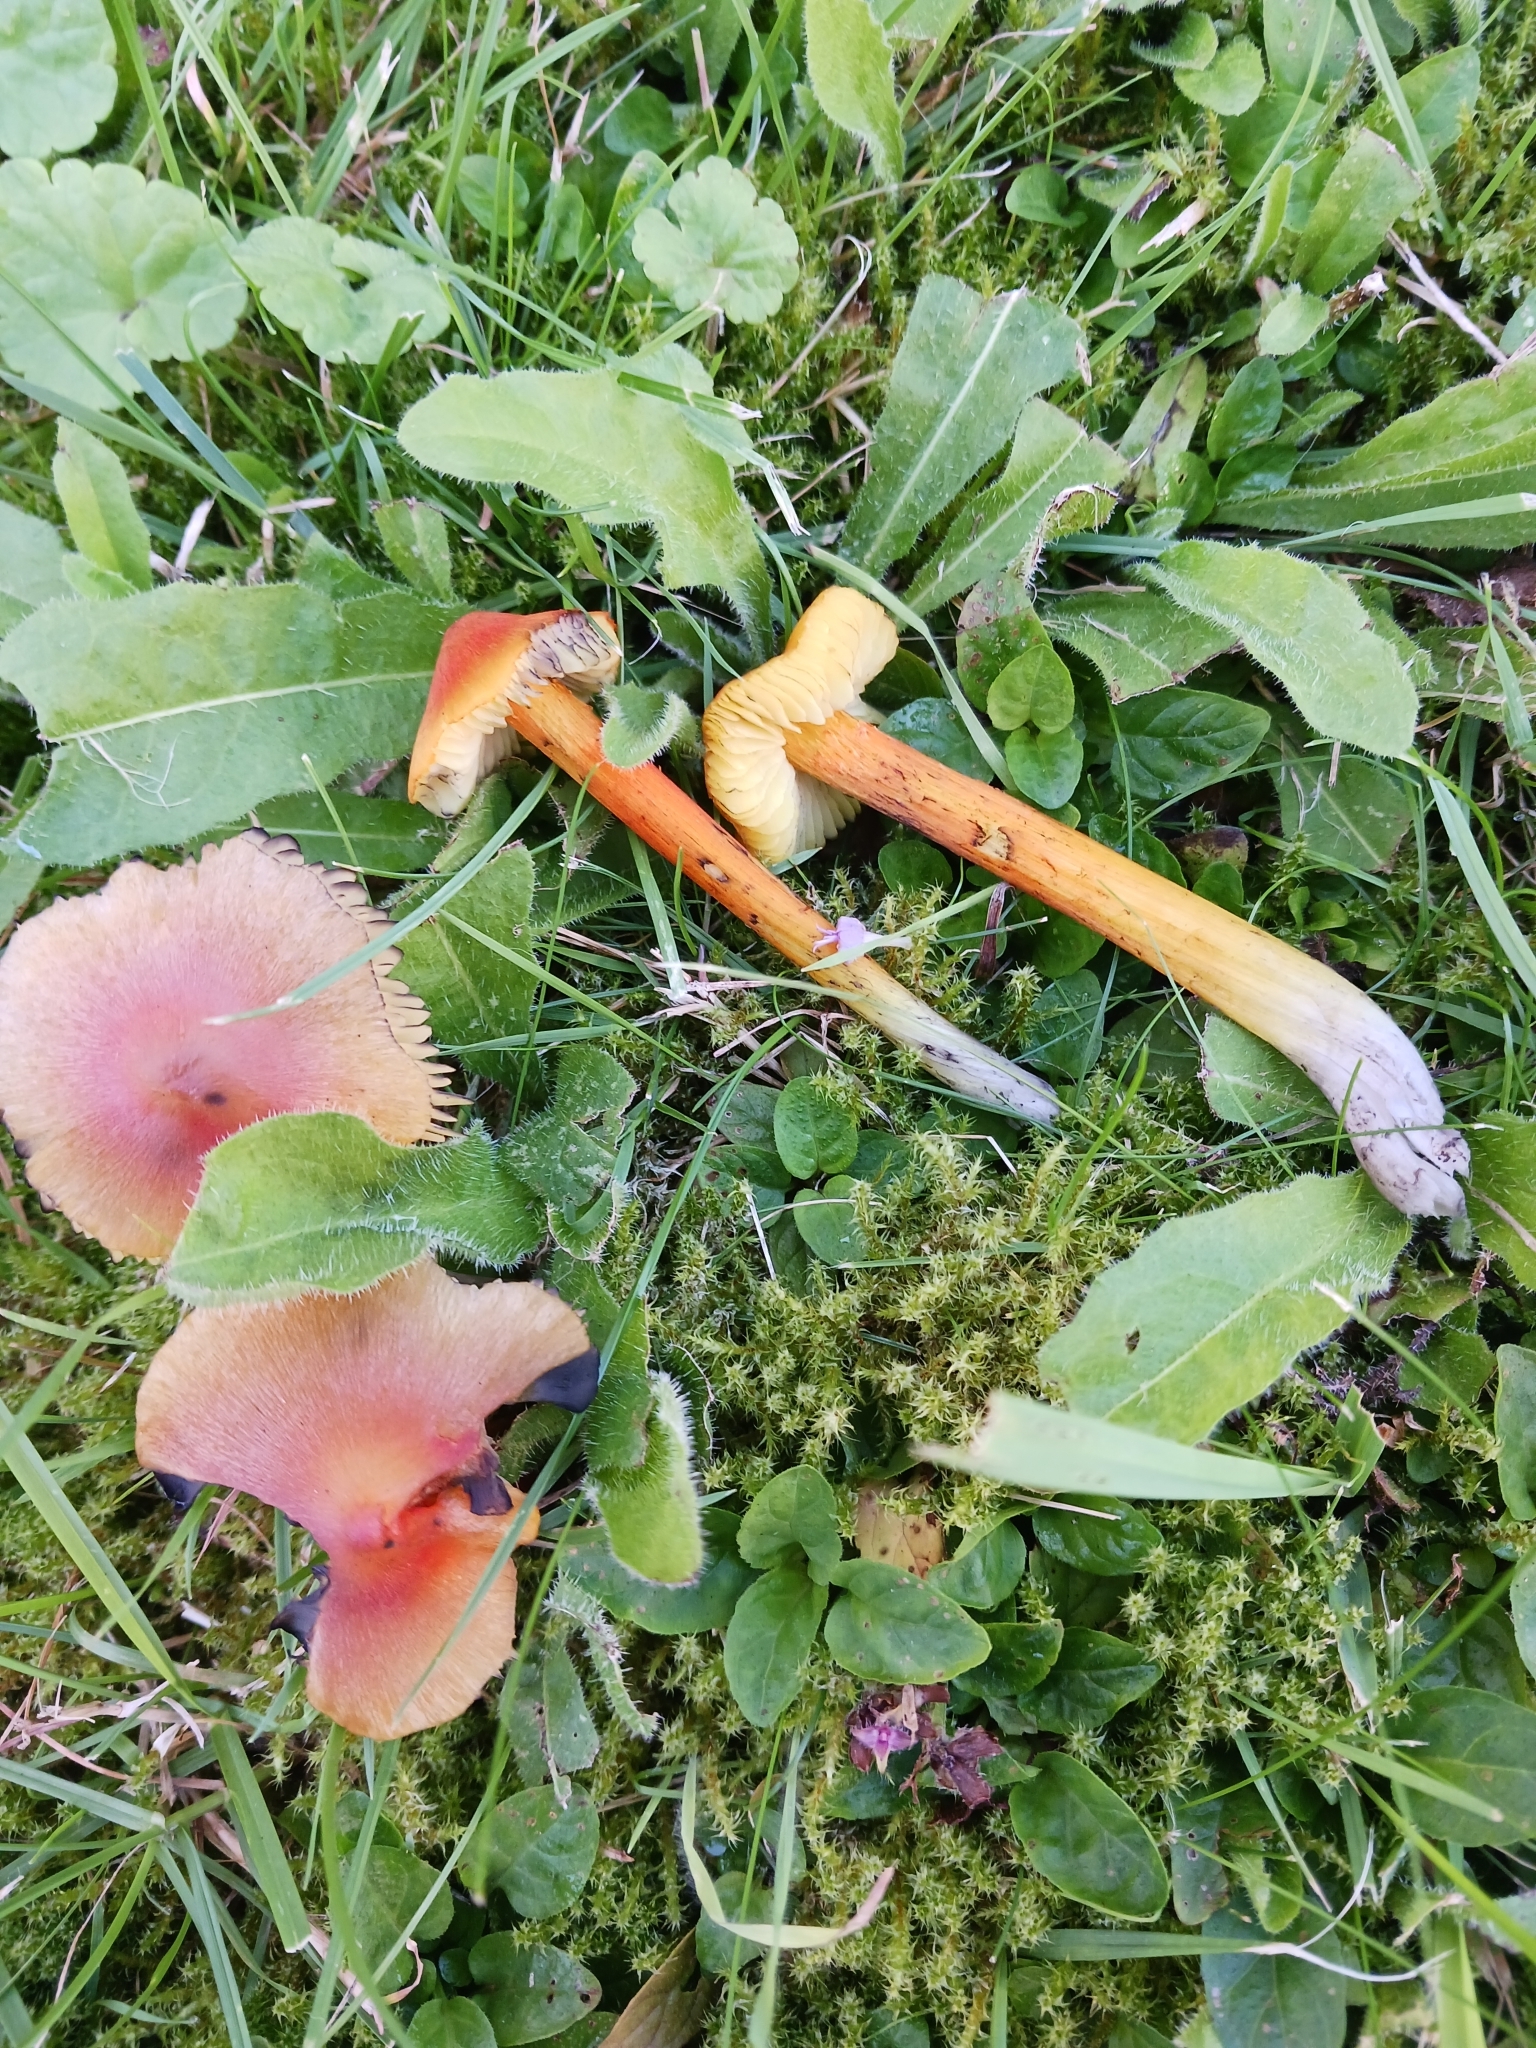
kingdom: Fungi
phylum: Basidiomycota
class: Agaricomycetes
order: Agaricales
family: Hygrophoraceae
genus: Hygrocybe
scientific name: Hygrocybe conica
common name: Blackening wax-cap
